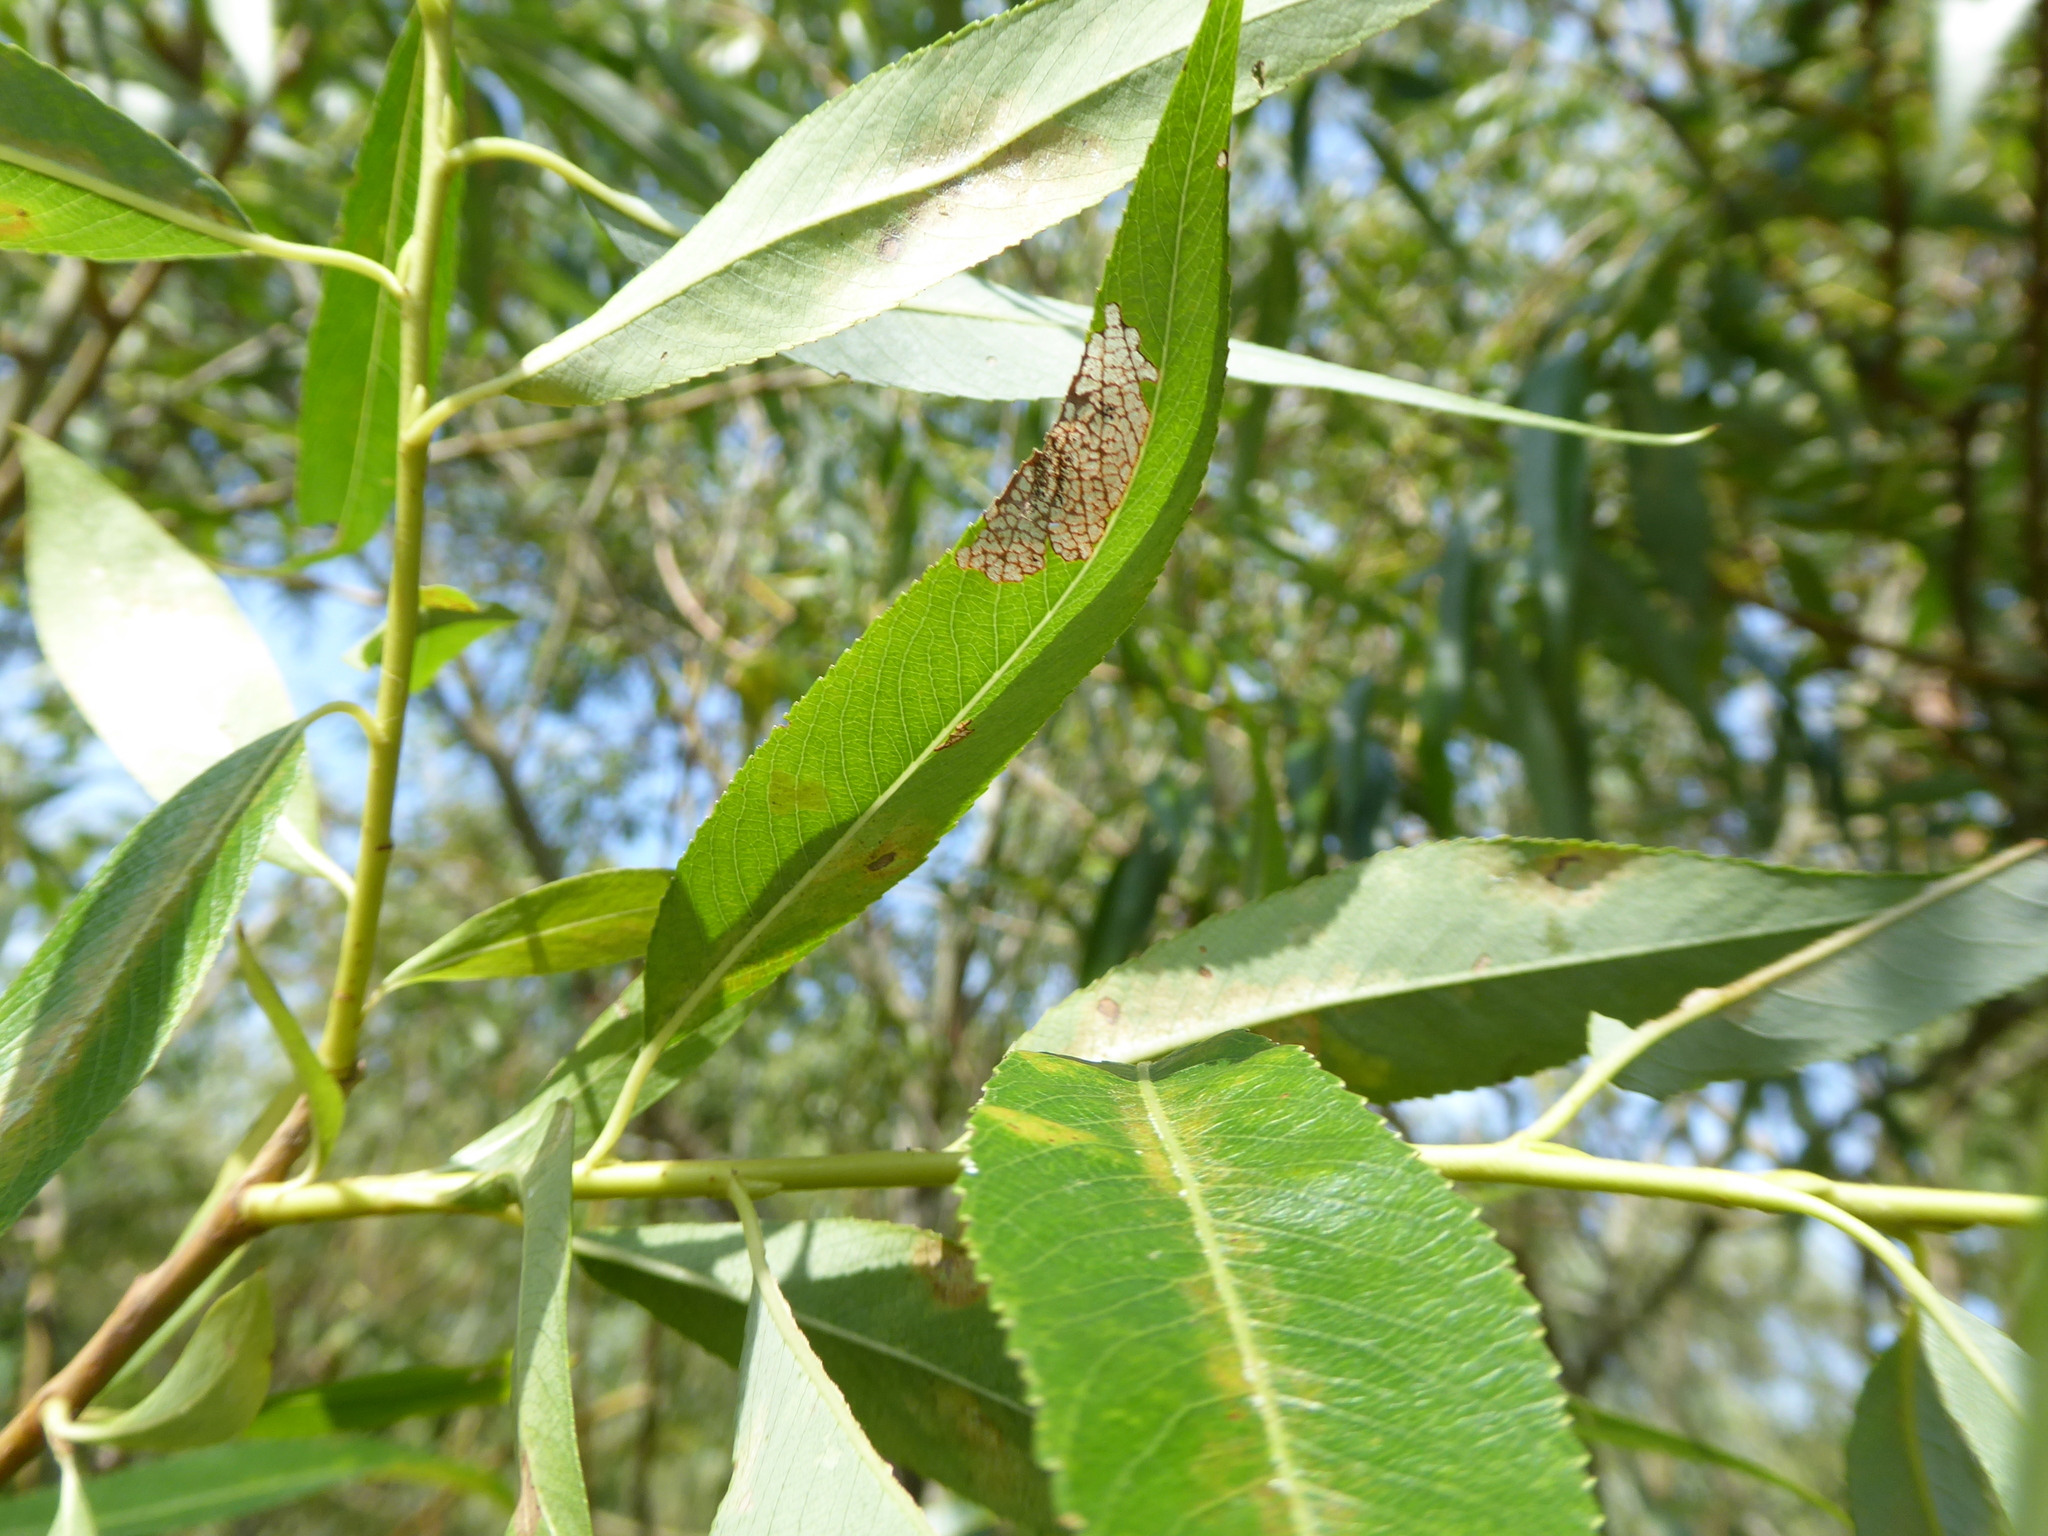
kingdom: Plantae
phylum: Tracheophyta
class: Magnoliopsida
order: Malpighiales
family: Salicaceae
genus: Salix
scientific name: Salix fragilis
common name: Crack willow
